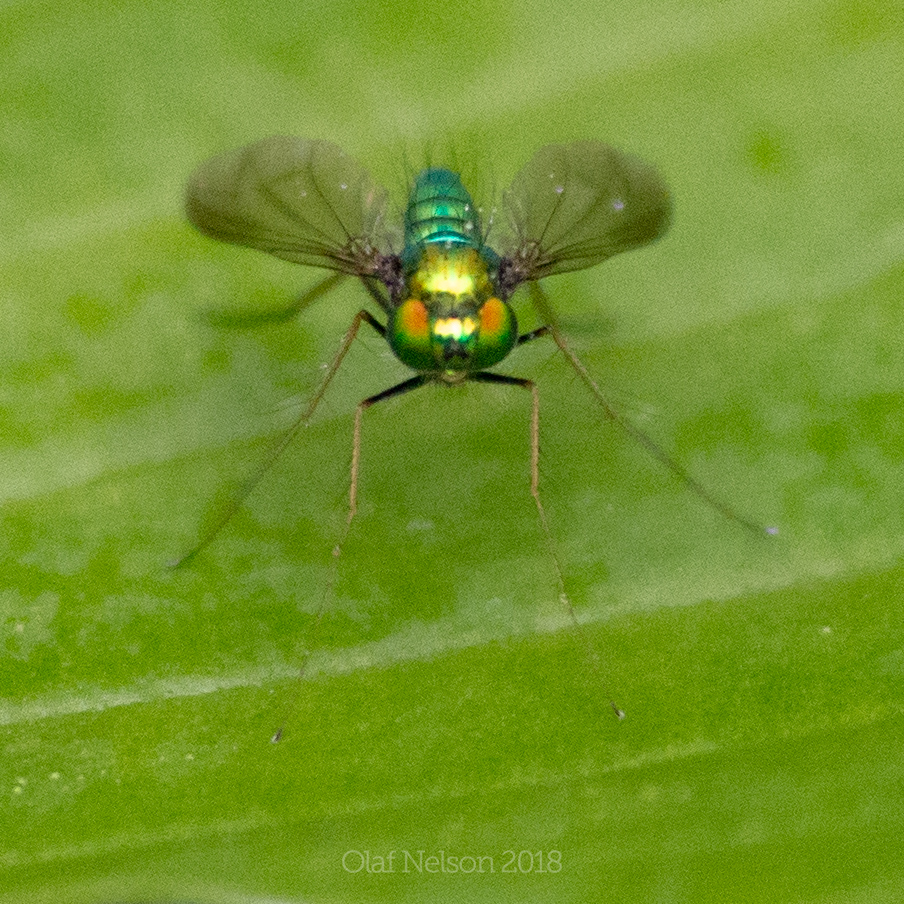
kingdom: Animalia
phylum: Arthropoda
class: Insecta
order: Diptera
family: Dolichopodidae
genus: Condylostylus
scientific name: Condylostylus
